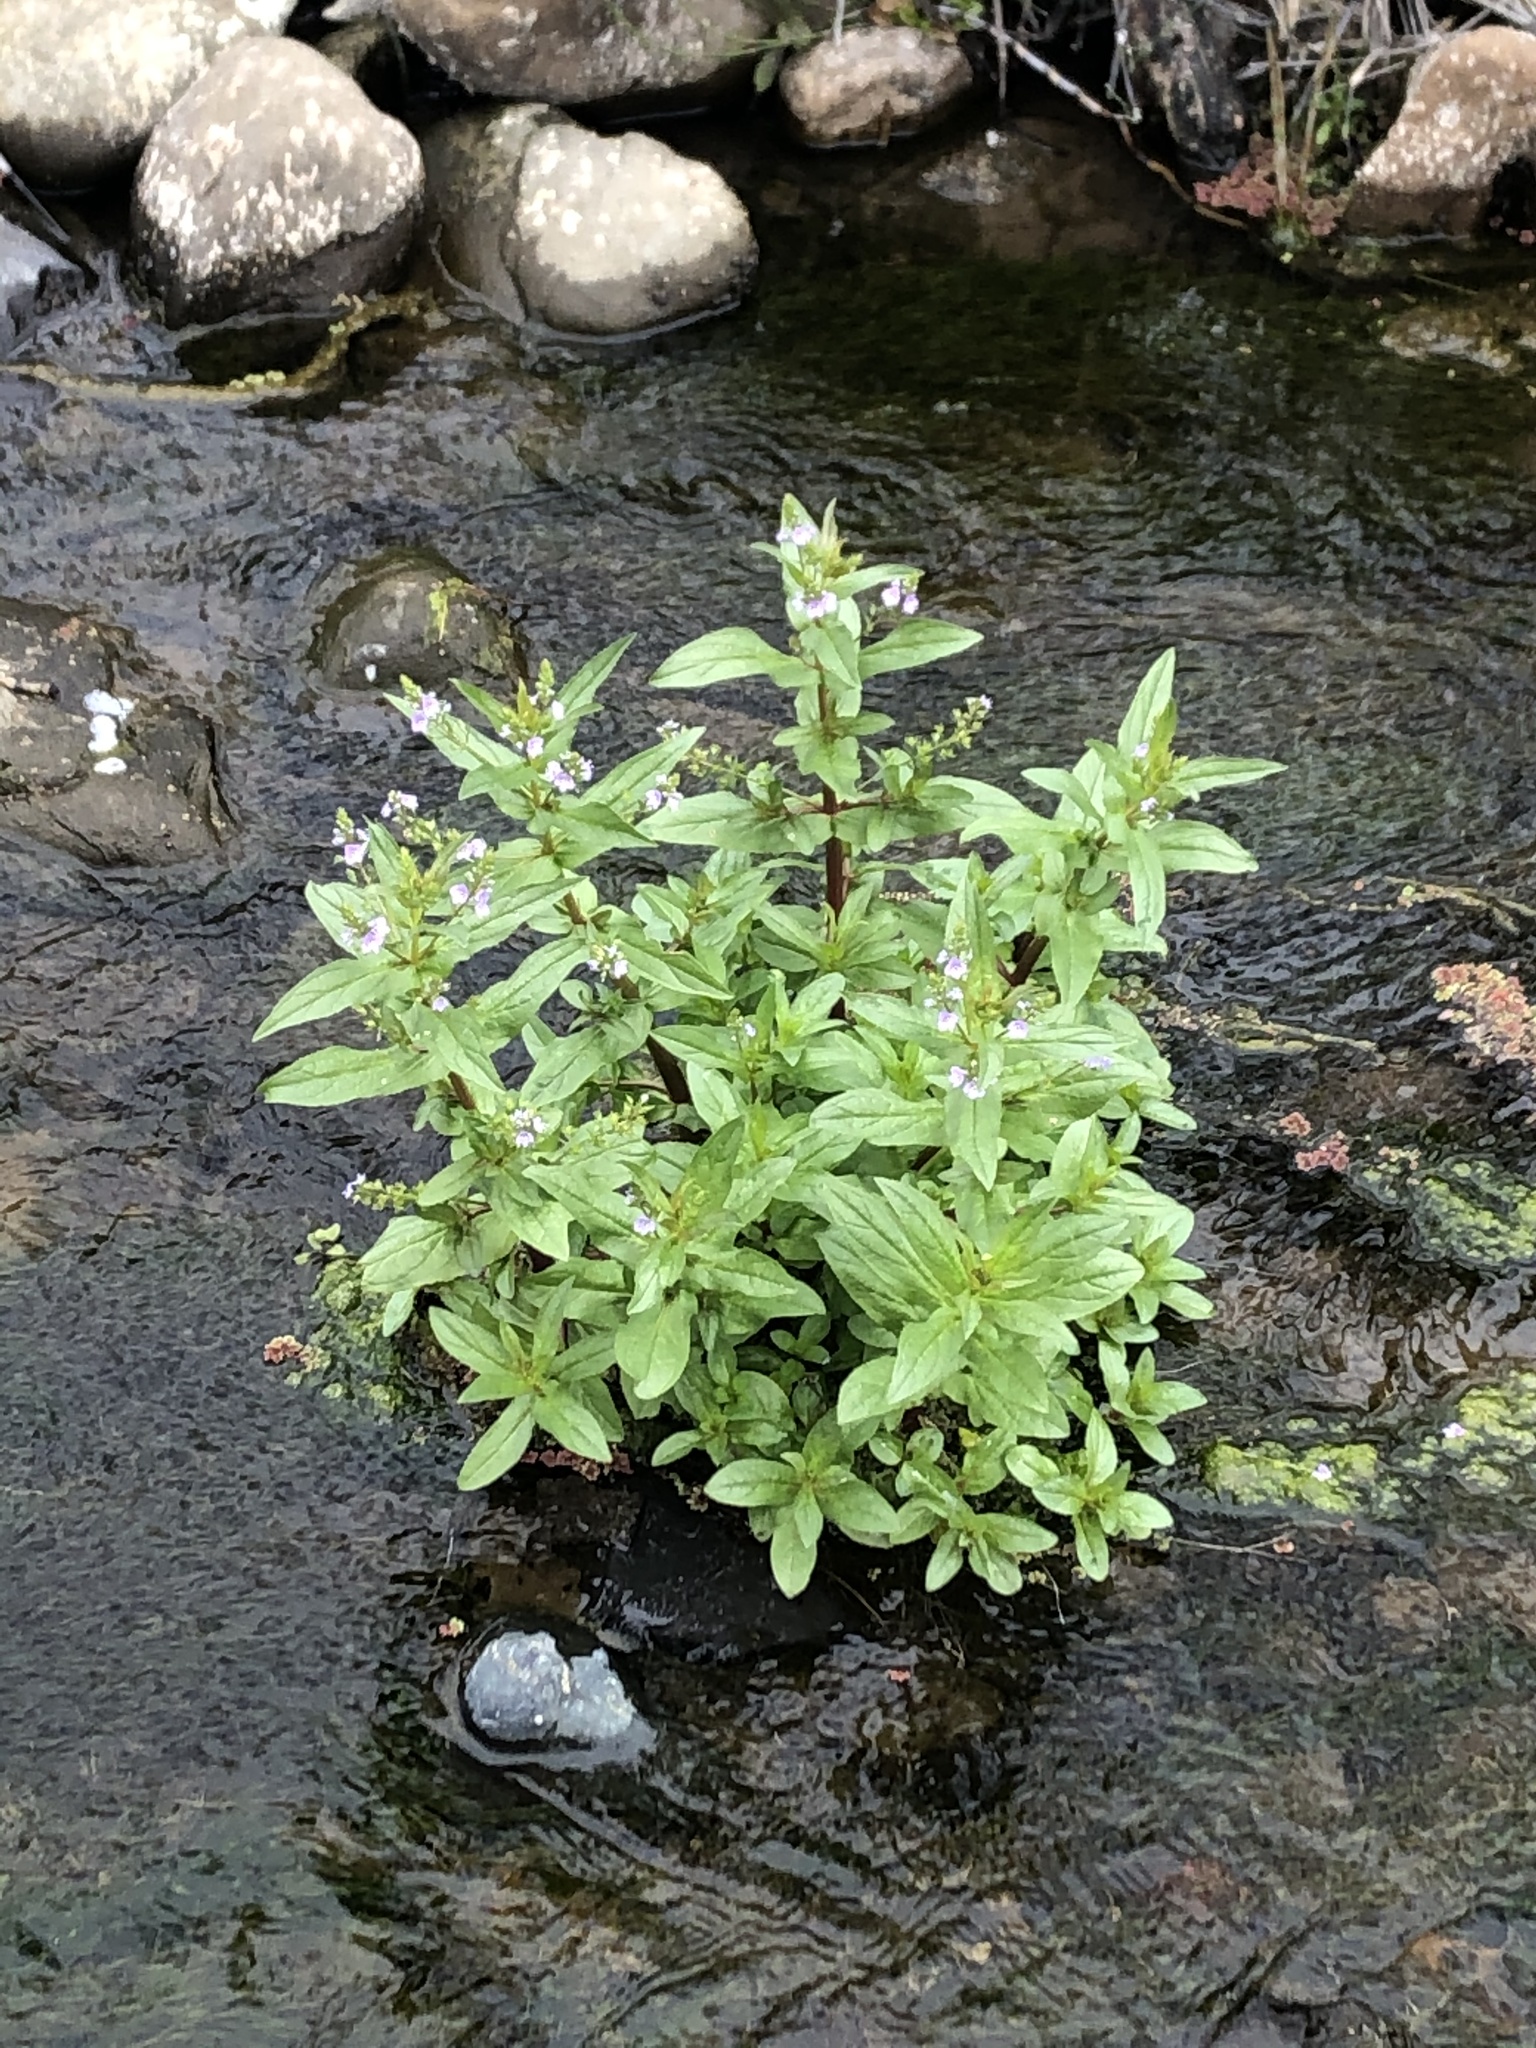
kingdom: Plantae
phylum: Tracheophyta
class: Magnoliopsida
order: Lamiales
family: Plantaginaceae
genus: Veronica
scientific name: Veronica anagallis-aquatica
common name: Water speedwell
